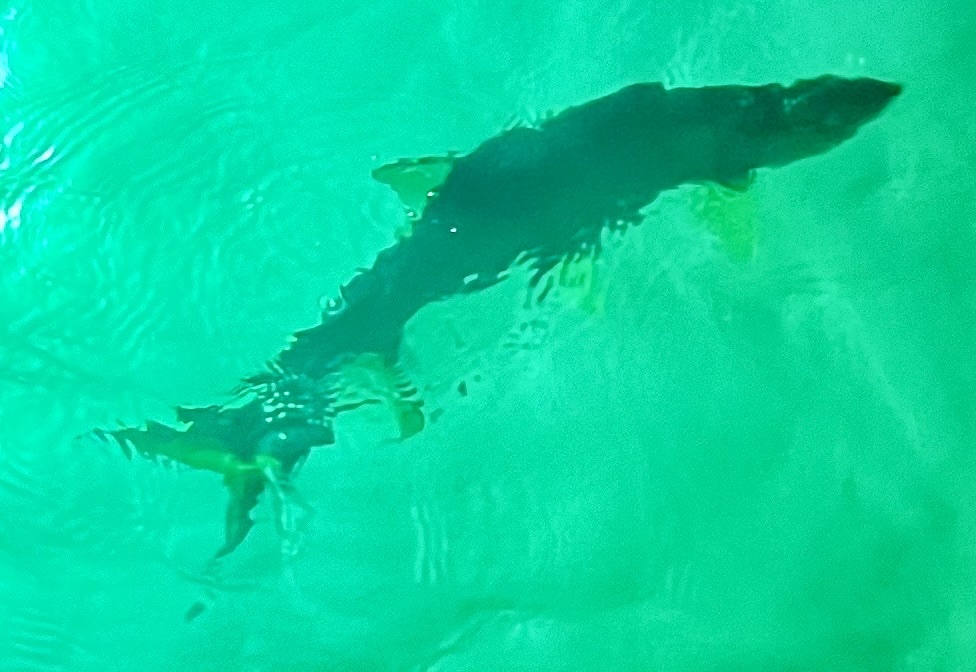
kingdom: Animalia
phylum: Chordata
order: Elopiformes
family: Megalopidae
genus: Megalops
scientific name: Megalops atlanticus
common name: Tarpon
